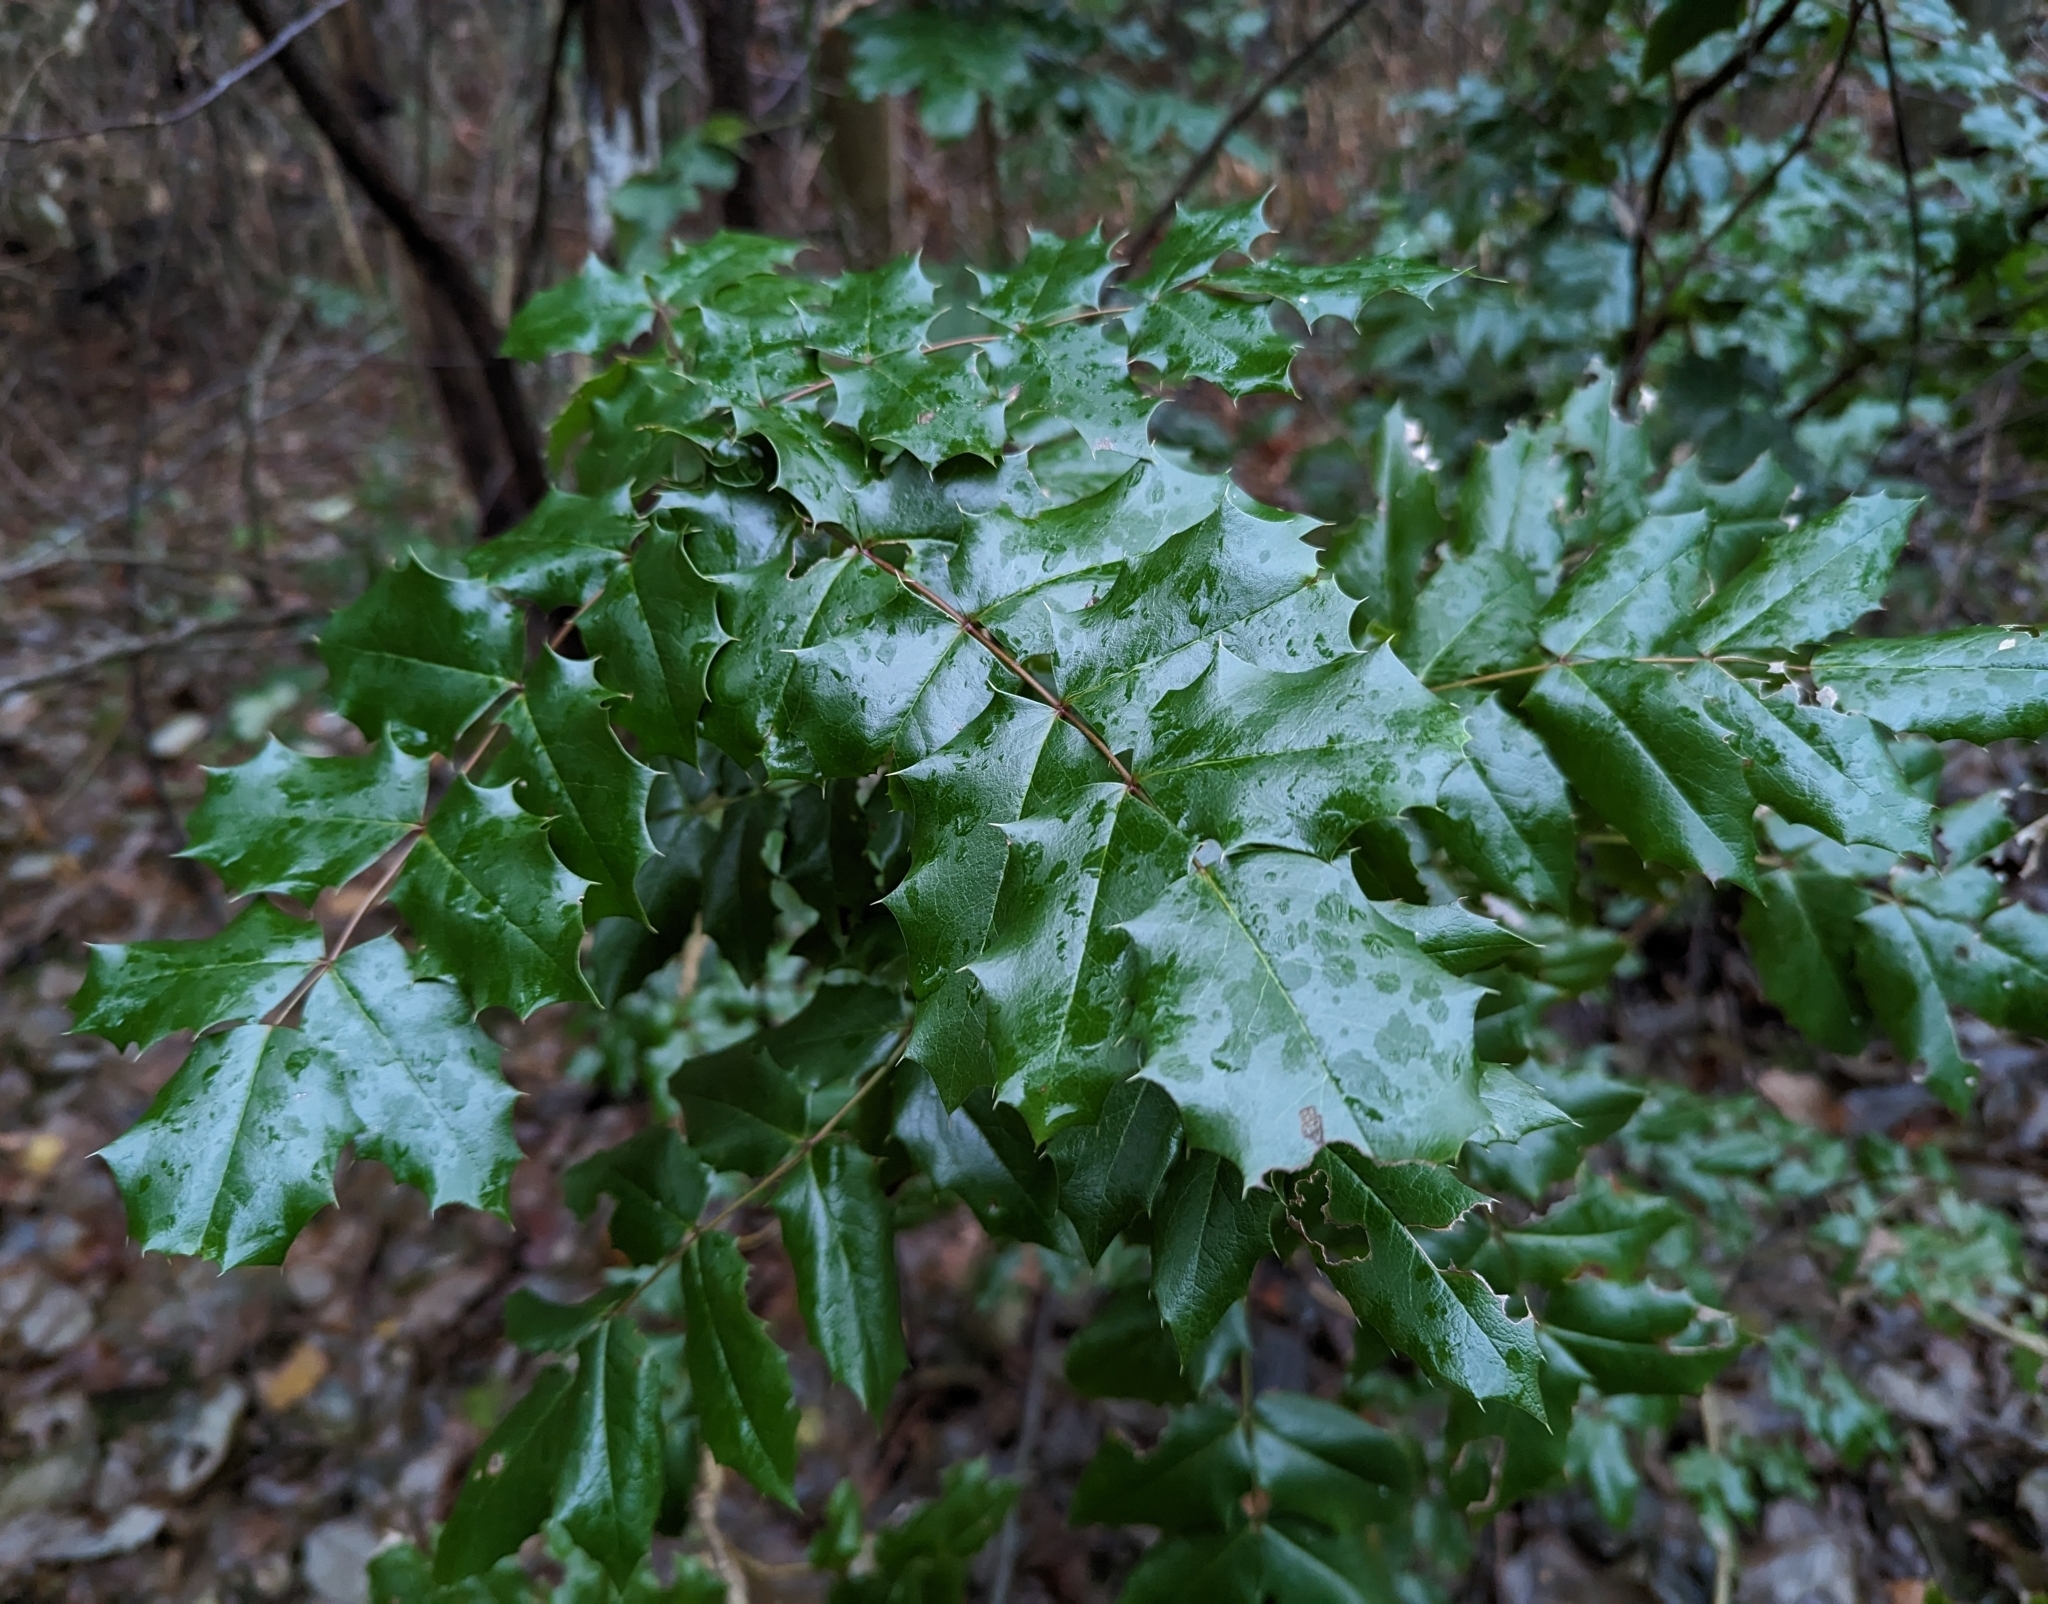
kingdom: Plantae
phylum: Tracheophyta
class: Magnoliopsida
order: Ranunculales
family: Berberidaceae
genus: Mahonia
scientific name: Mahonia aquifolium
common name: Oregon-grape
